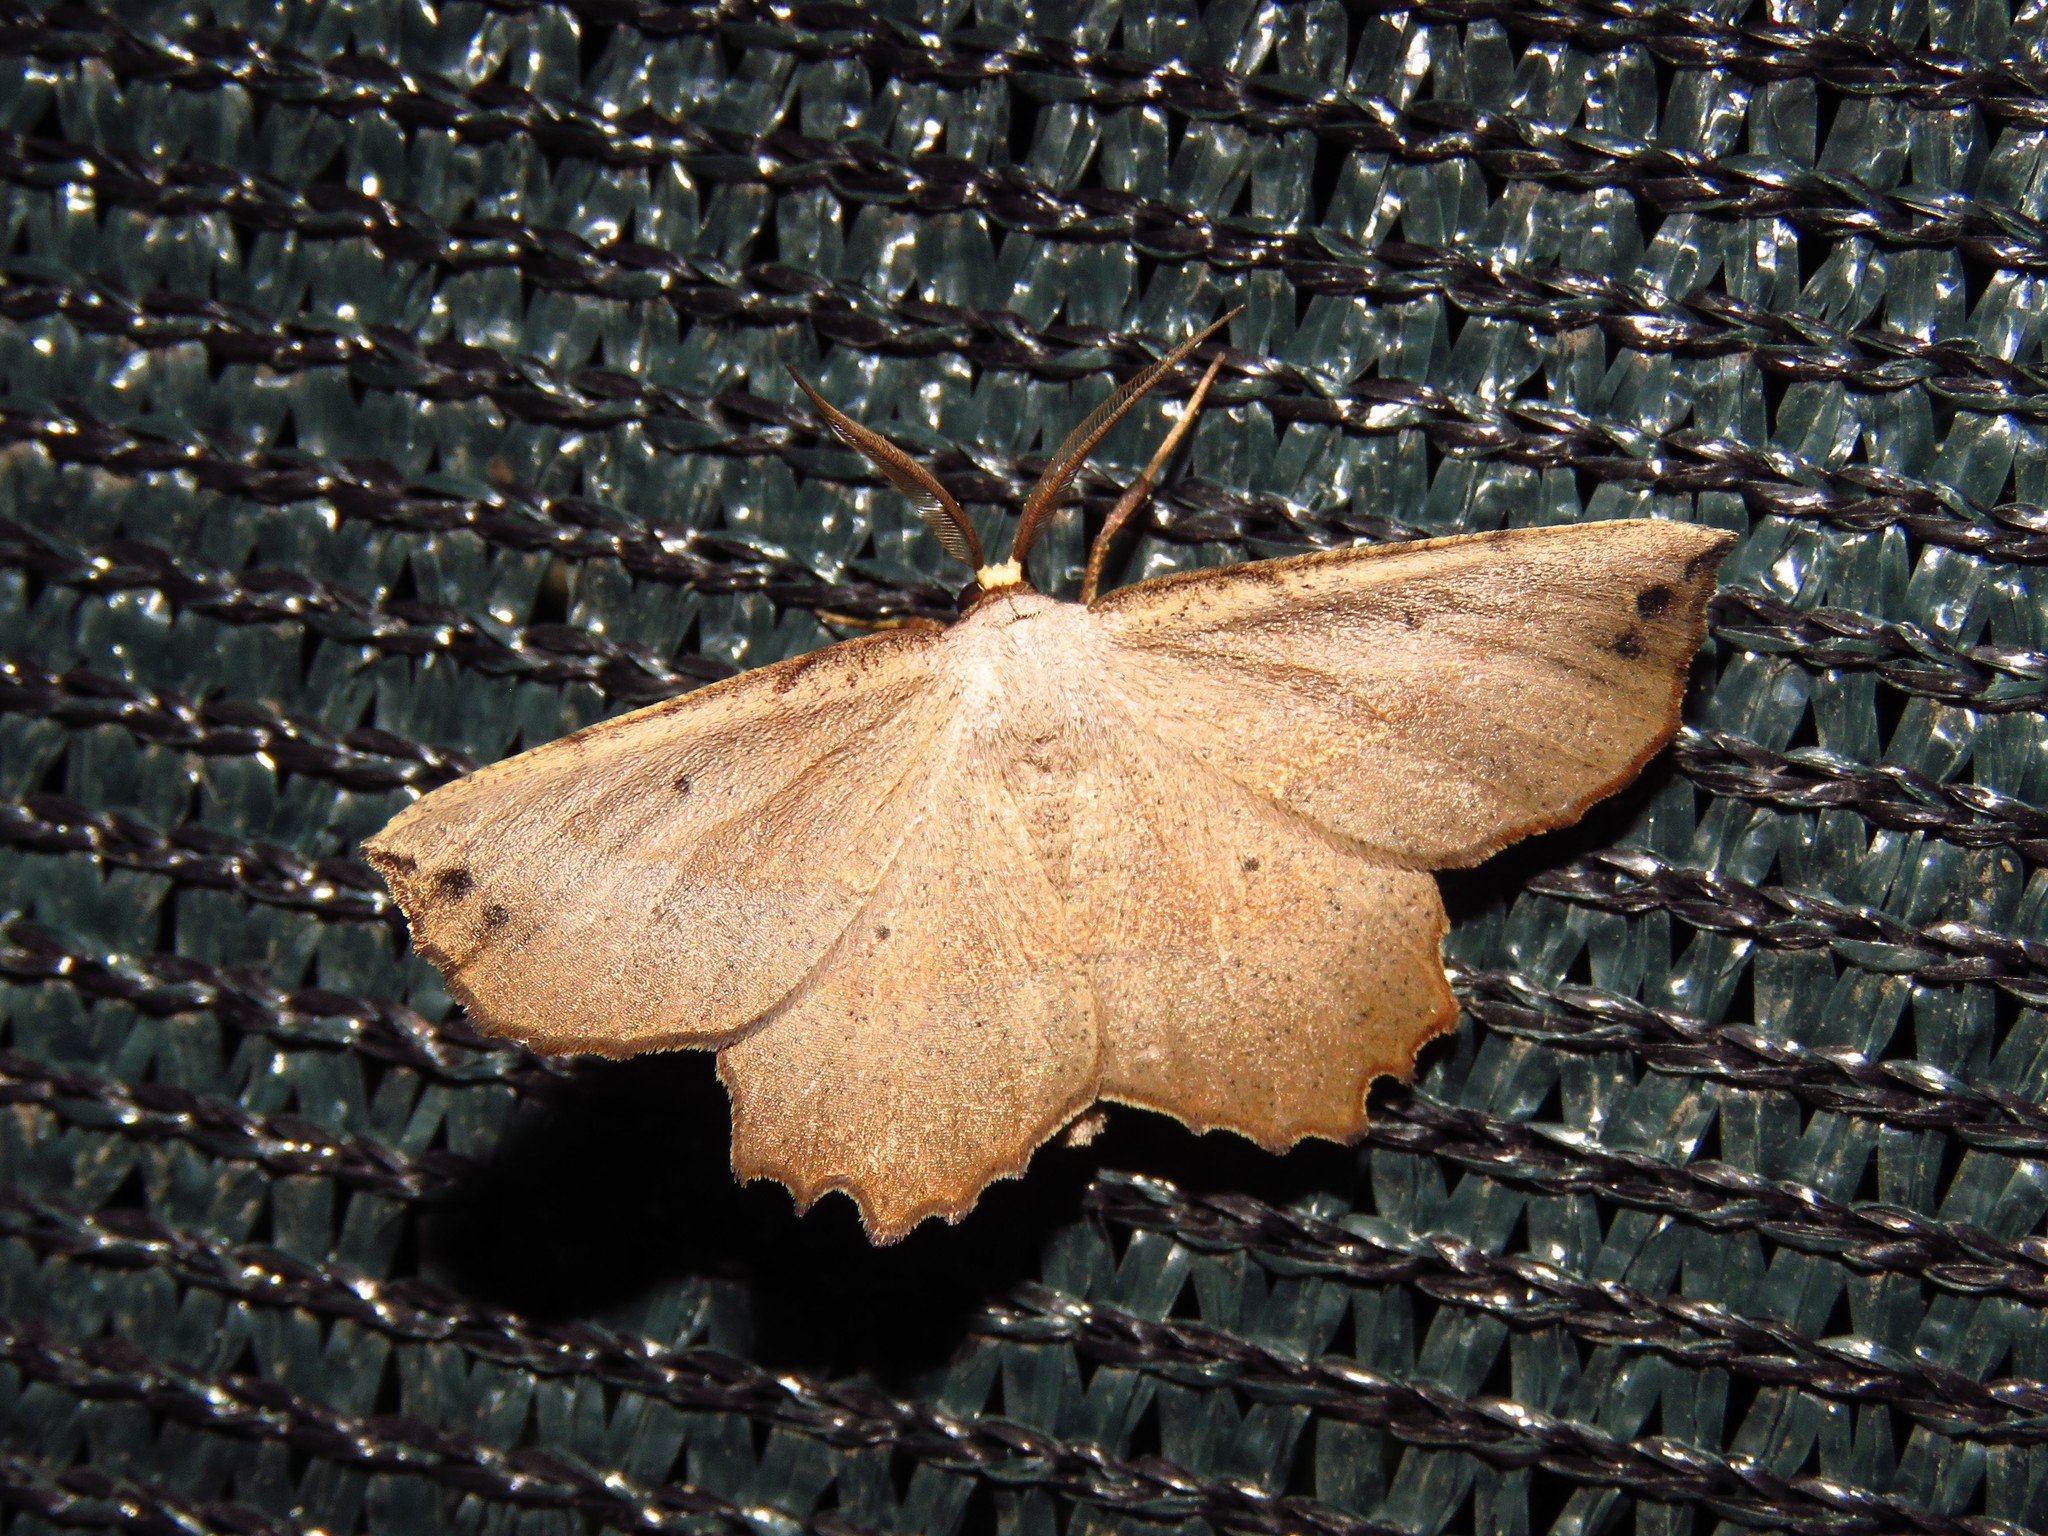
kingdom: Animalia
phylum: Arthropoda
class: Insecta
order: Lepidoptera
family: Geometridae
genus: Euchlaena
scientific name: Euchlaena obtusaria
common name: Obtuse euchlaena moth
